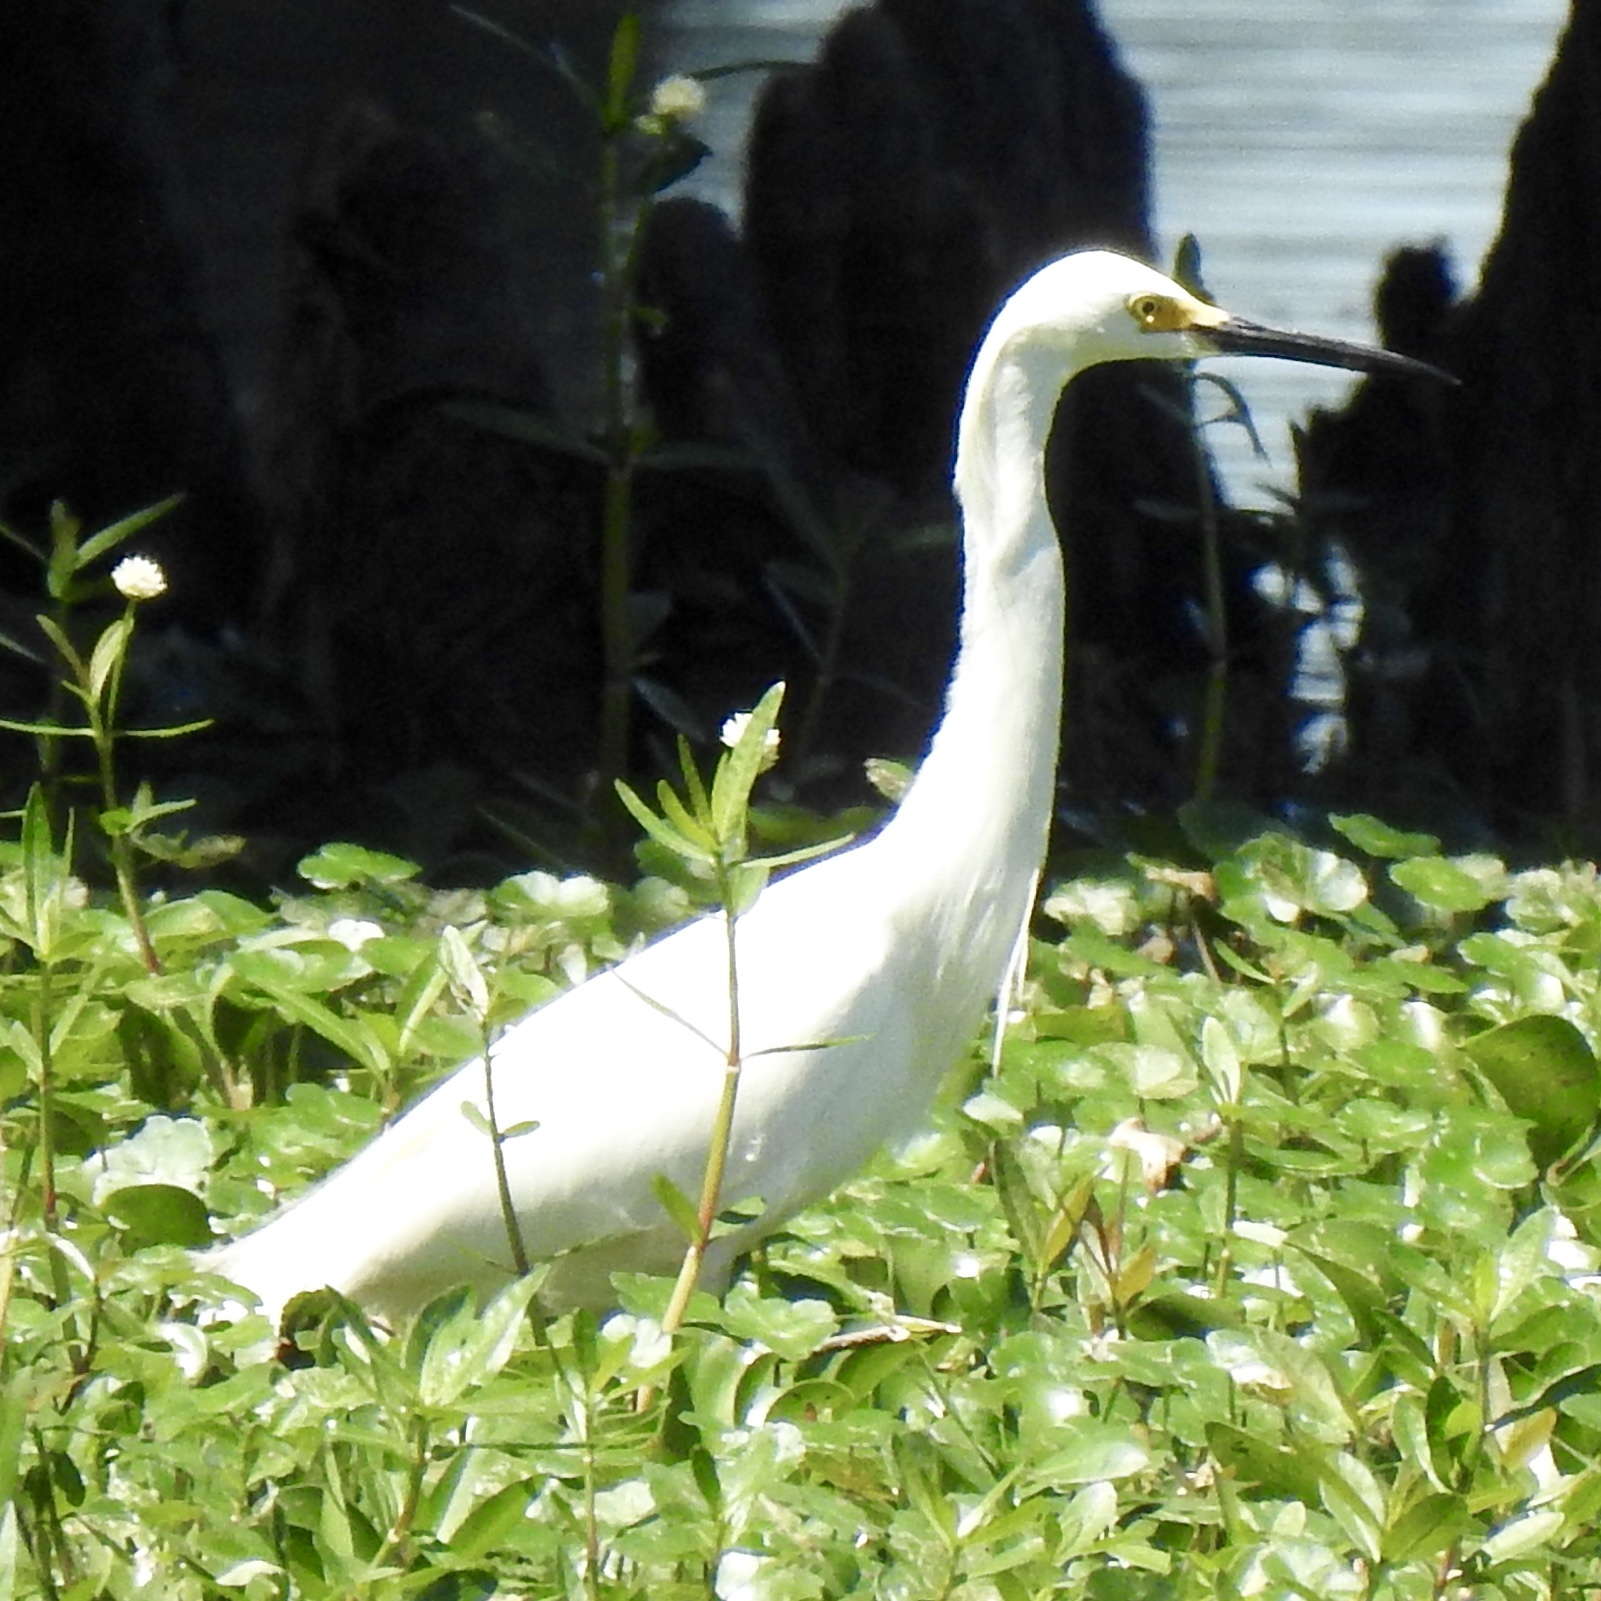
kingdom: Animalia
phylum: Chordata
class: Aves
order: Pelecaniformes
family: Ardeidae
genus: Egretta
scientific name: Egretta thula
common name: Snowy egret
